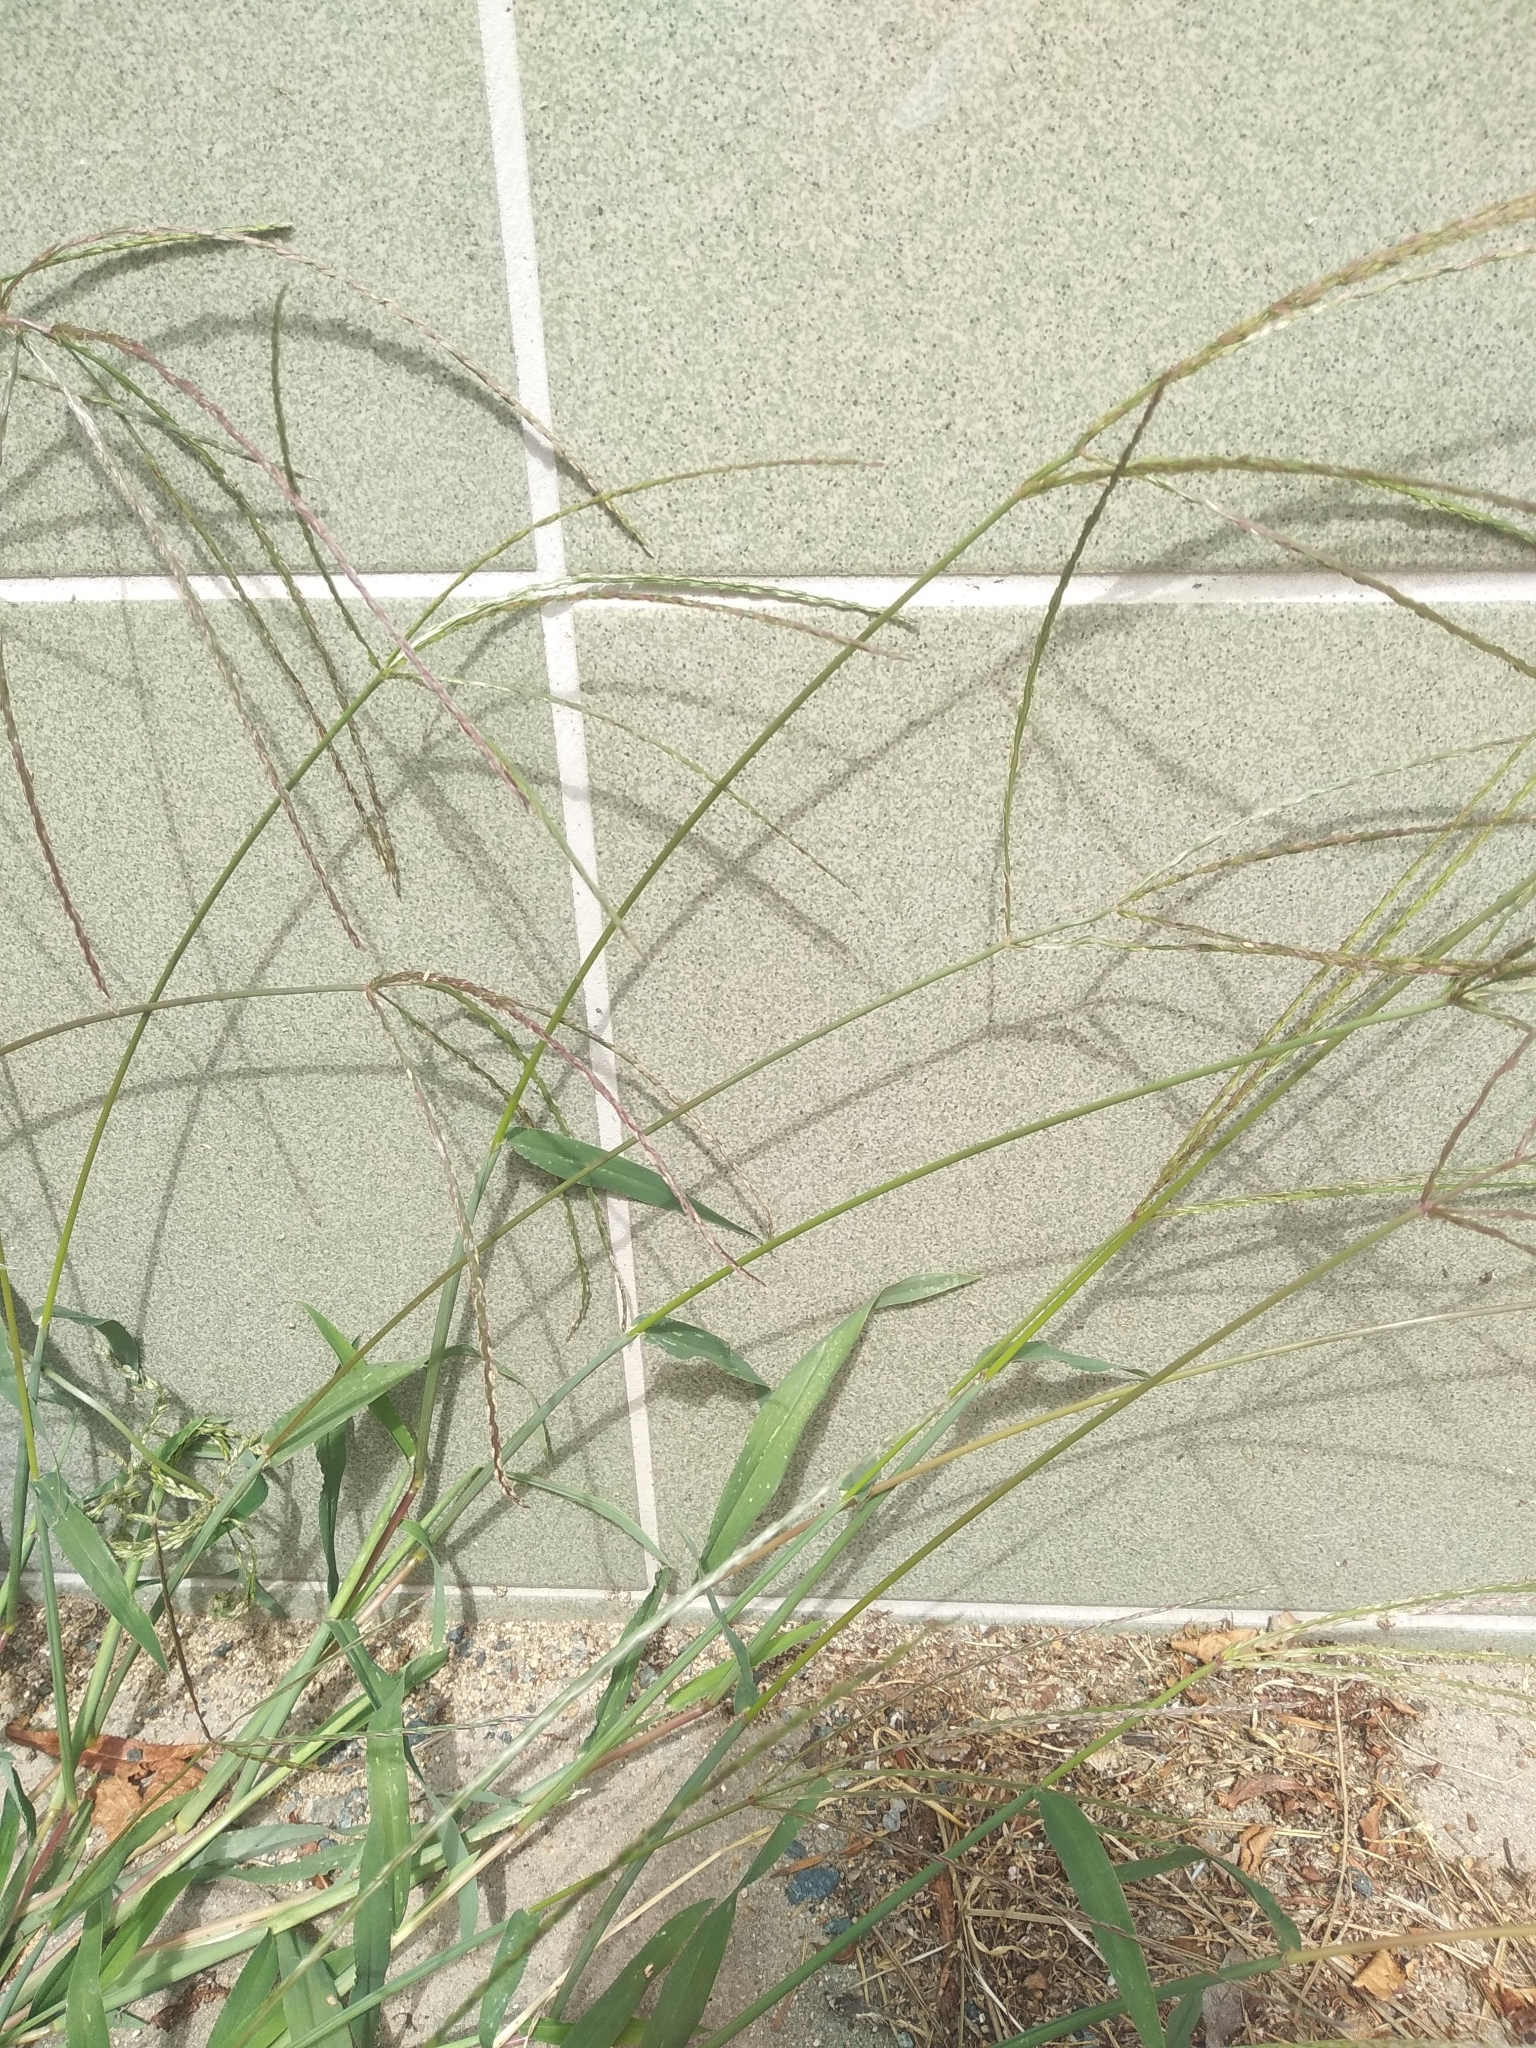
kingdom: Plantae
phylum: Tracheophyta
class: Liliopsida
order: Poales
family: Poaceae
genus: Digitaria
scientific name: Digitaria sanguinalis
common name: Hairy crabgrass
